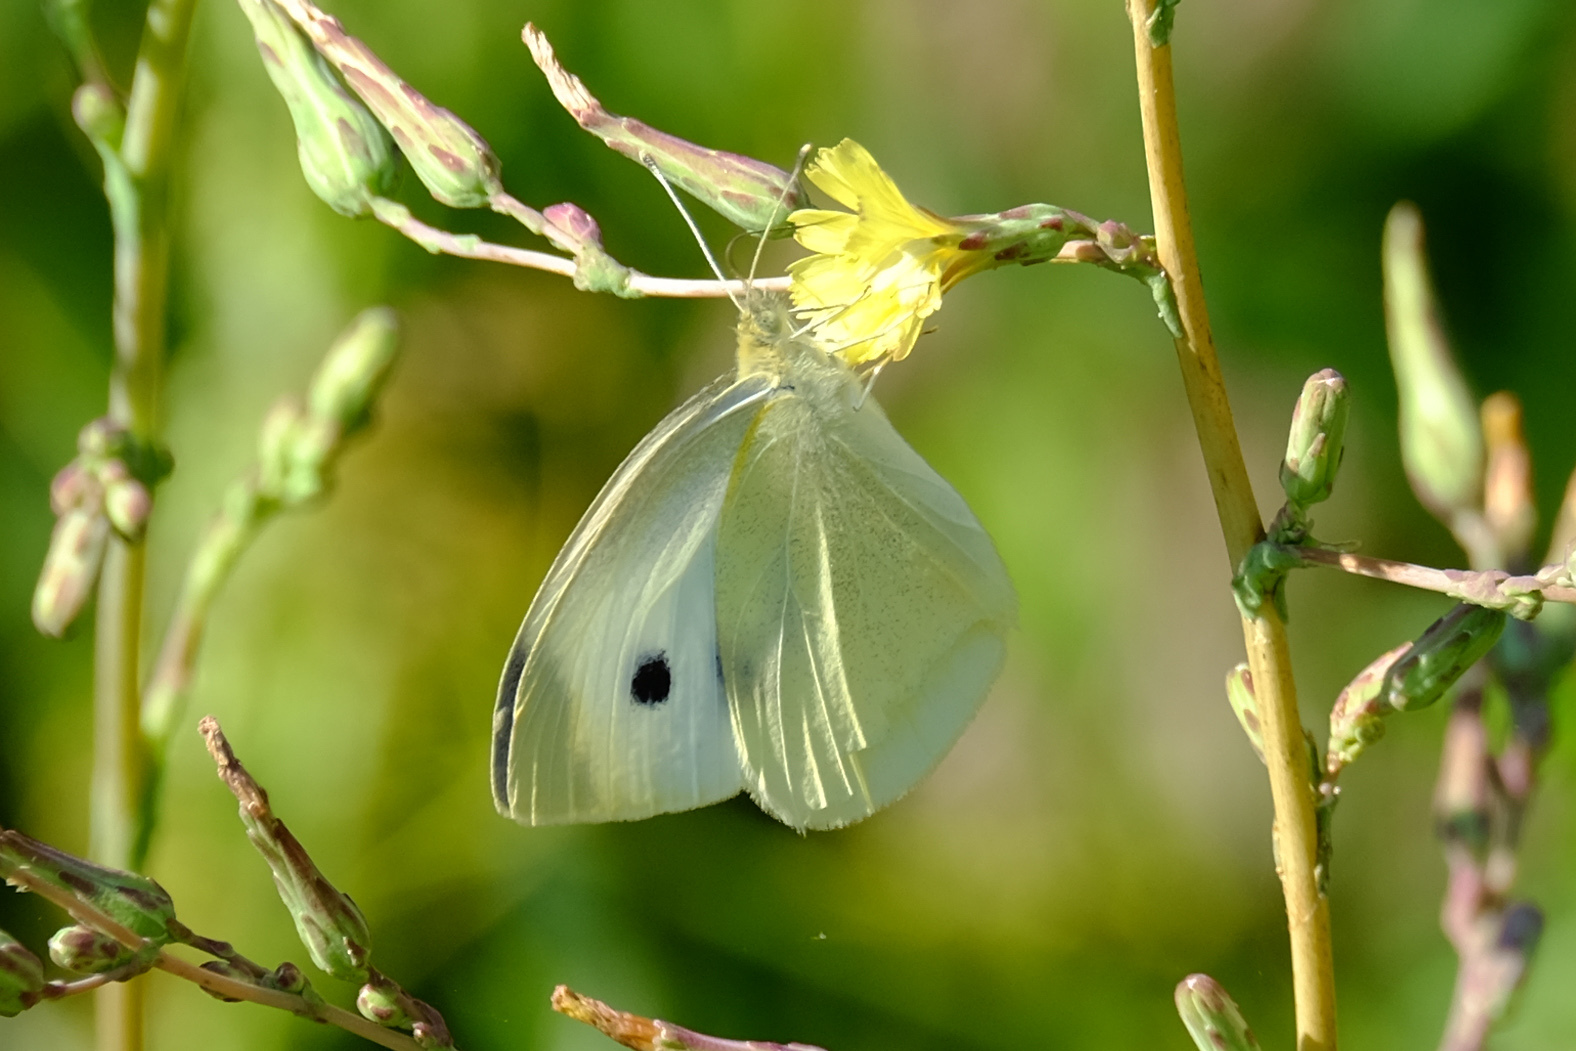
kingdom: Animalia
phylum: Arthropoda
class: Insecta
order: Lepidoptera
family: Pieridae
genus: Pieris
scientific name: Pieris rapae
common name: Small white
